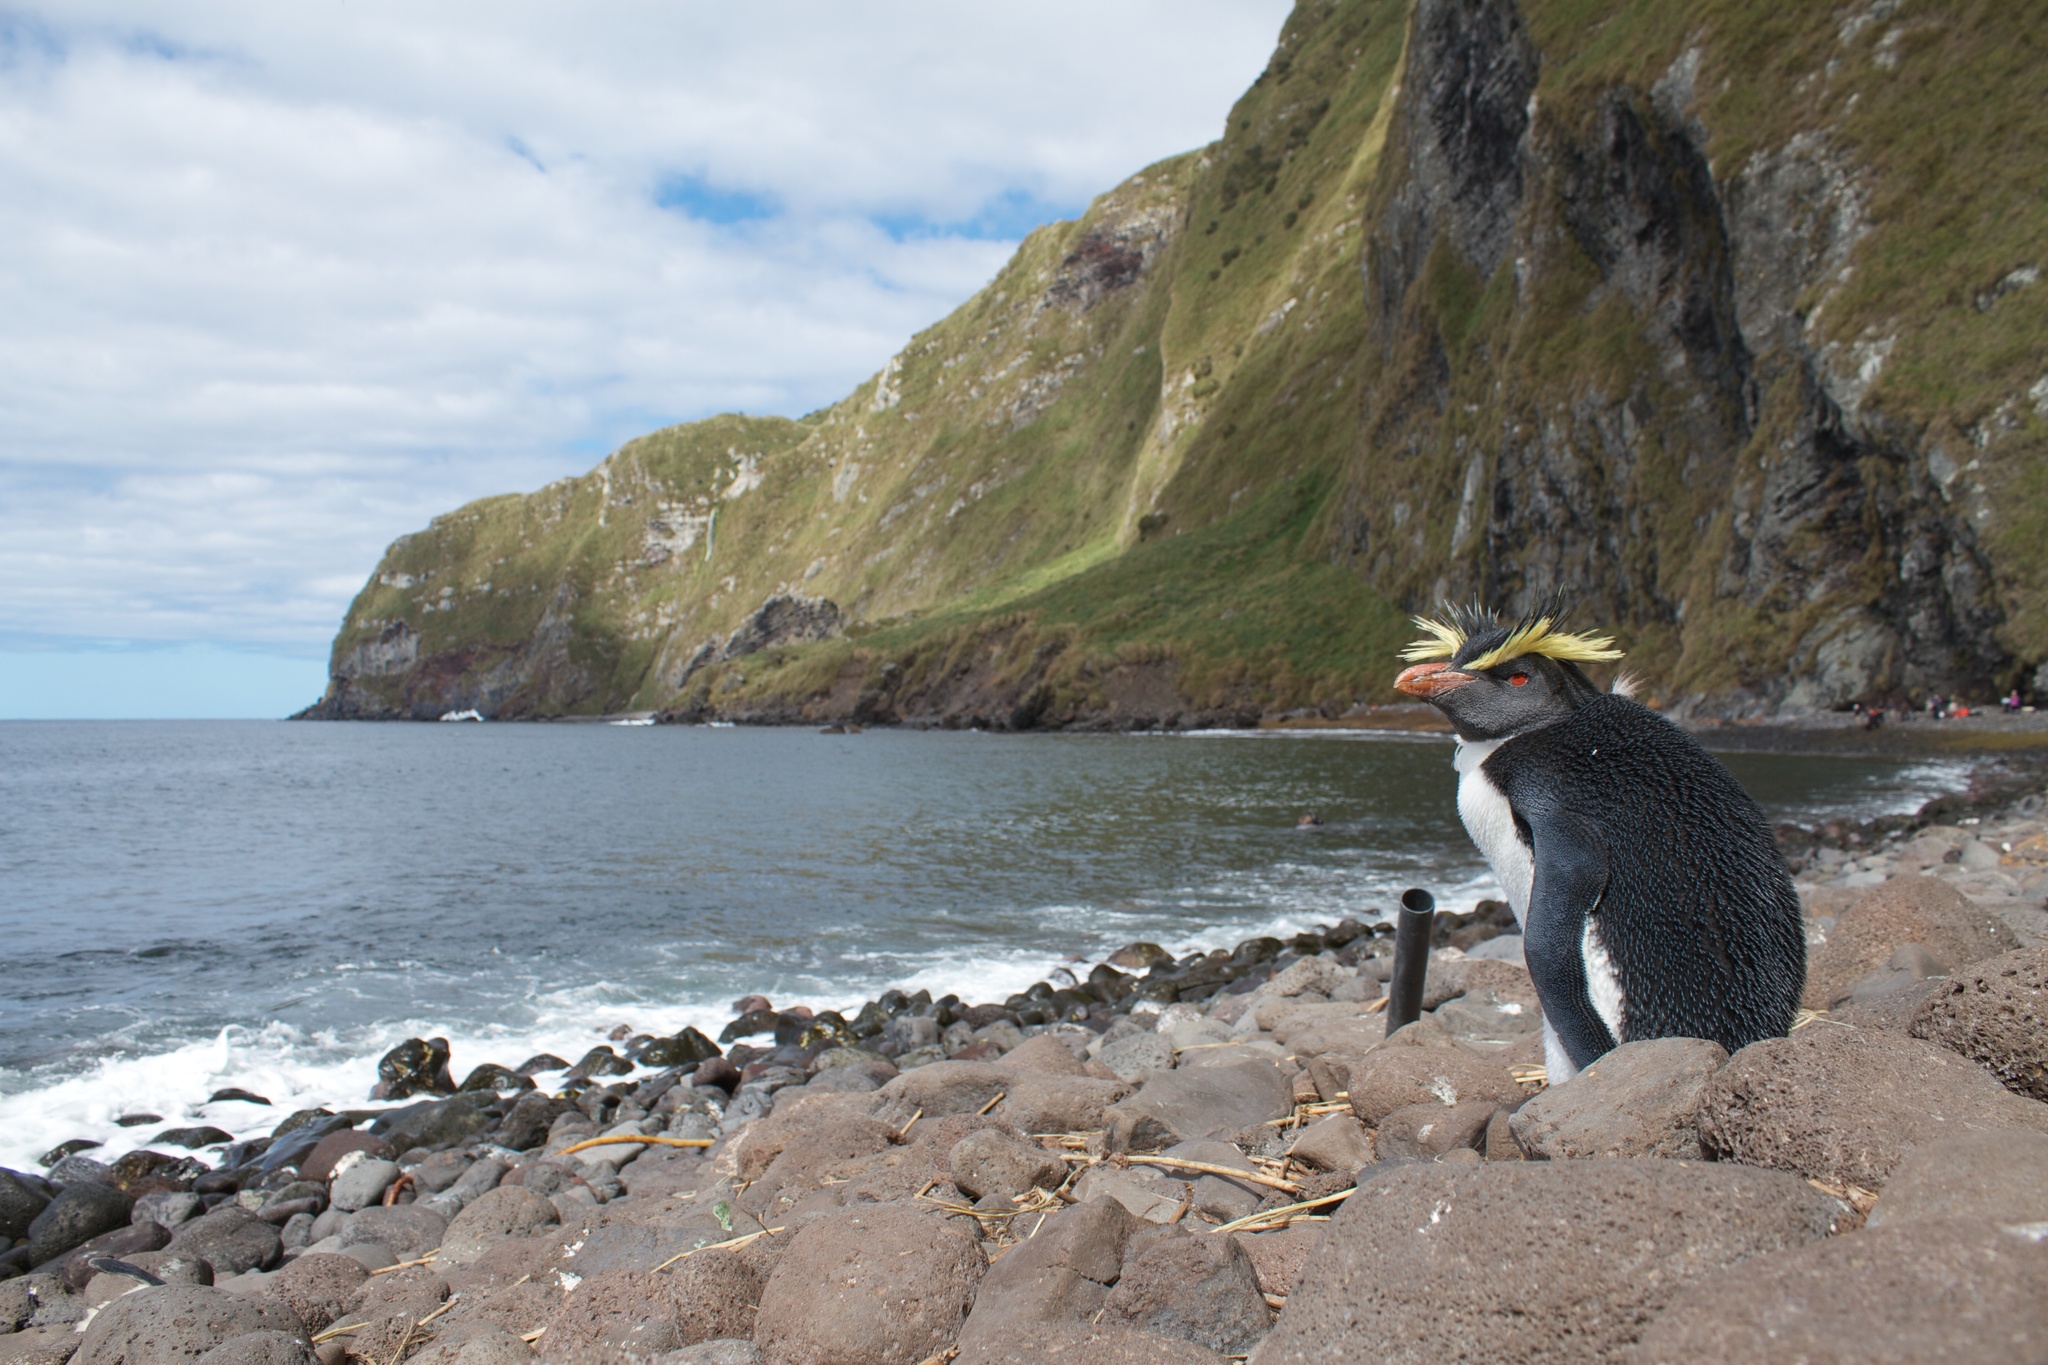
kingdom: Animalia
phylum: Chordata
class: Aves
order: Sphenisciformes
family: Spheniscidae
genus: Eudyptes
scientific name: Eudyptes moseleyi
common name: Northern rockhopper penguin
